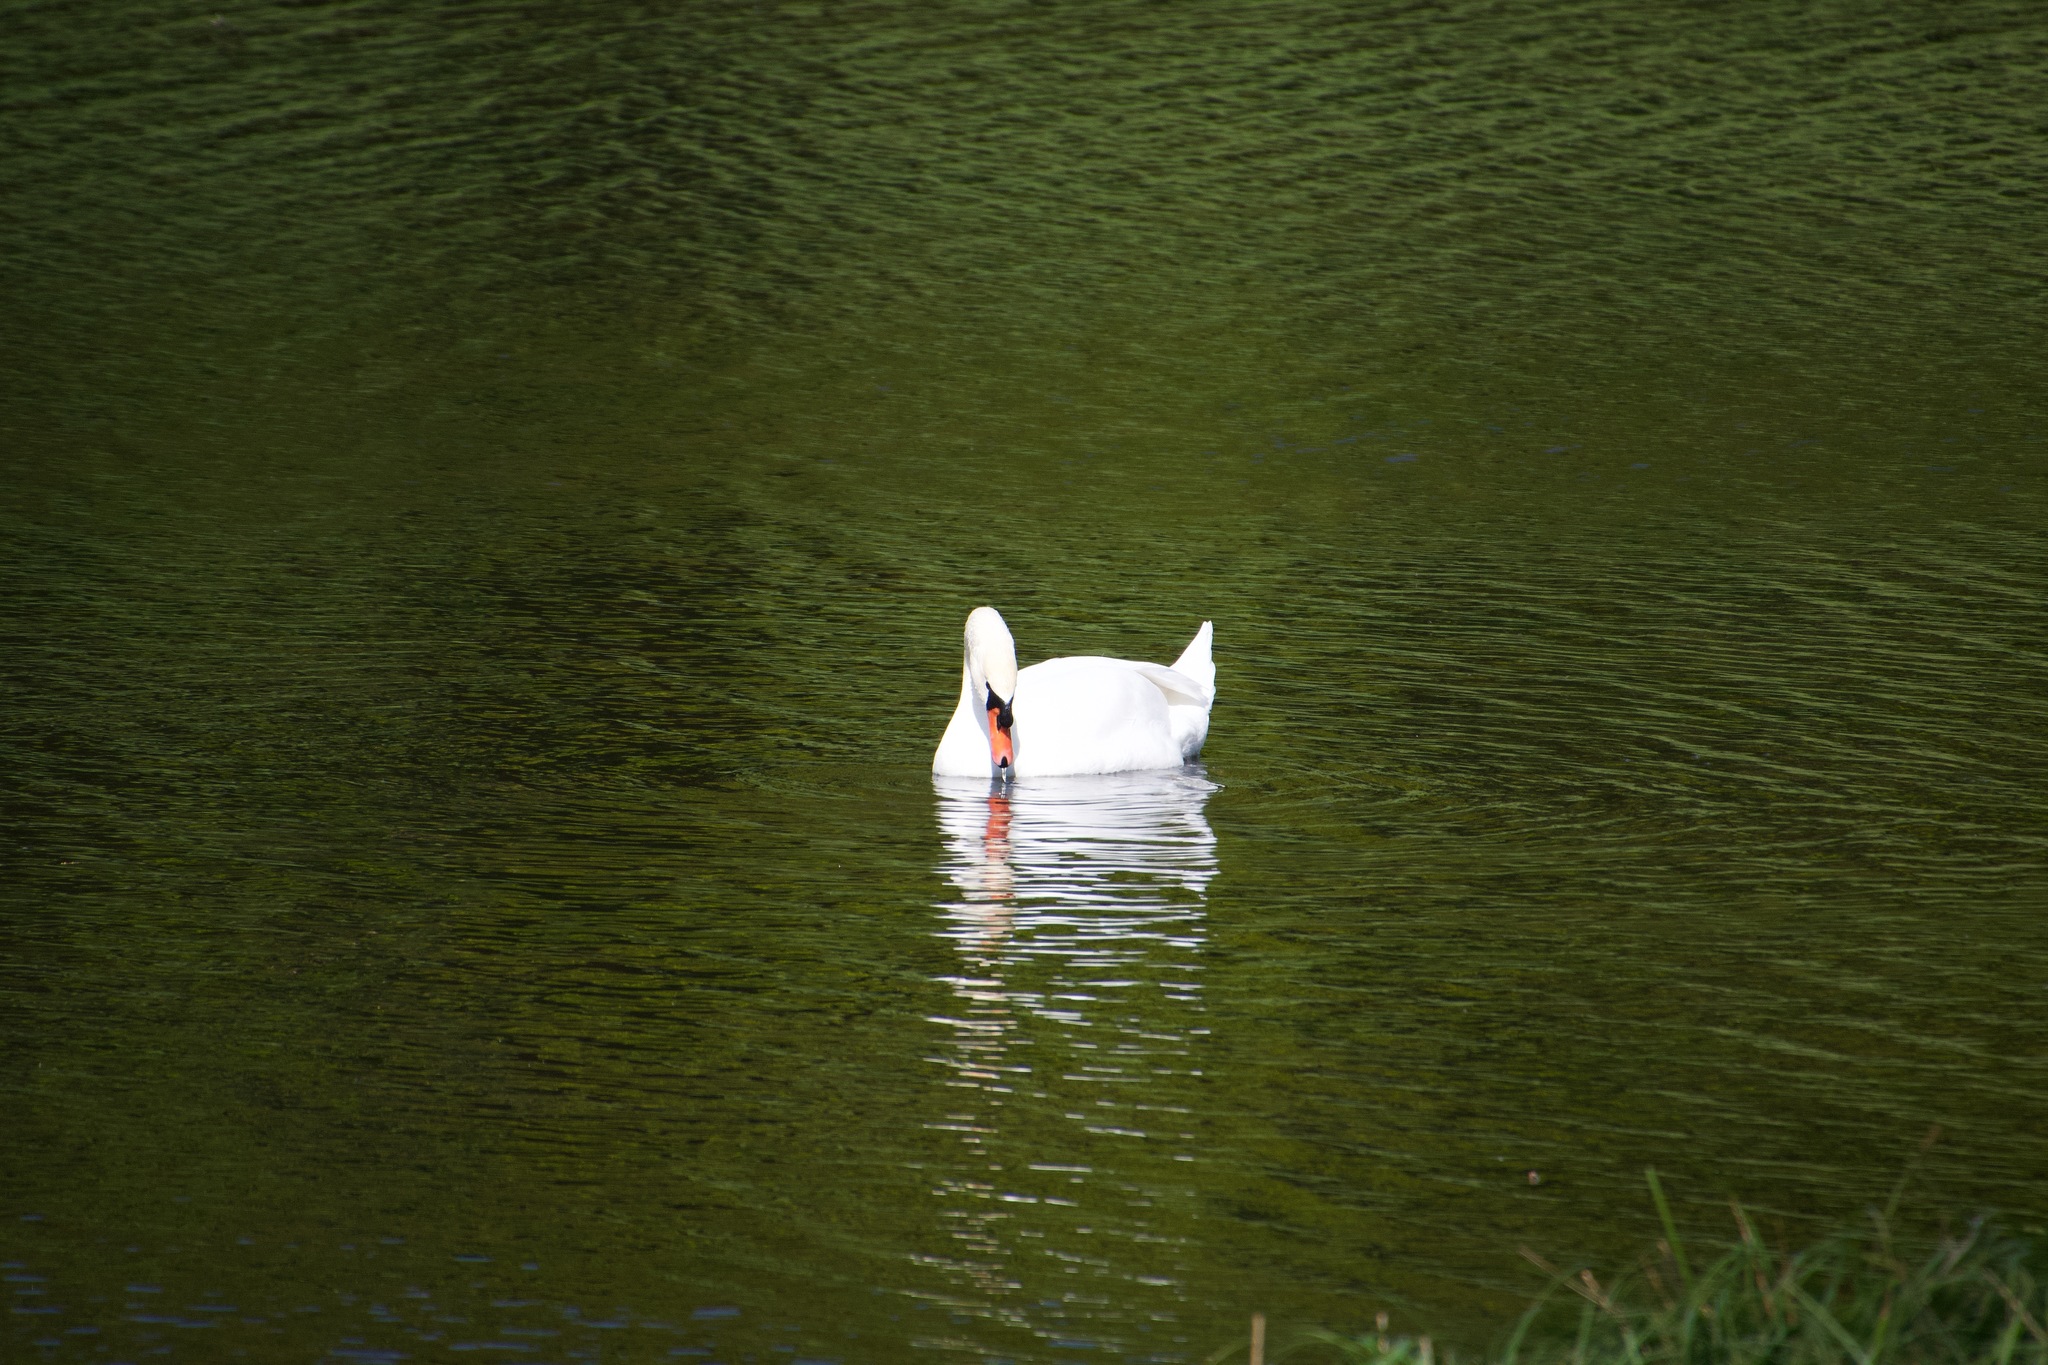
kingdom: Animalia
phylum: Chordata
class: Aves
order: Anseriformes
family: Anatidae
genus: Cygnus
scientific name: Cygnus olor
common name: Mute swan
